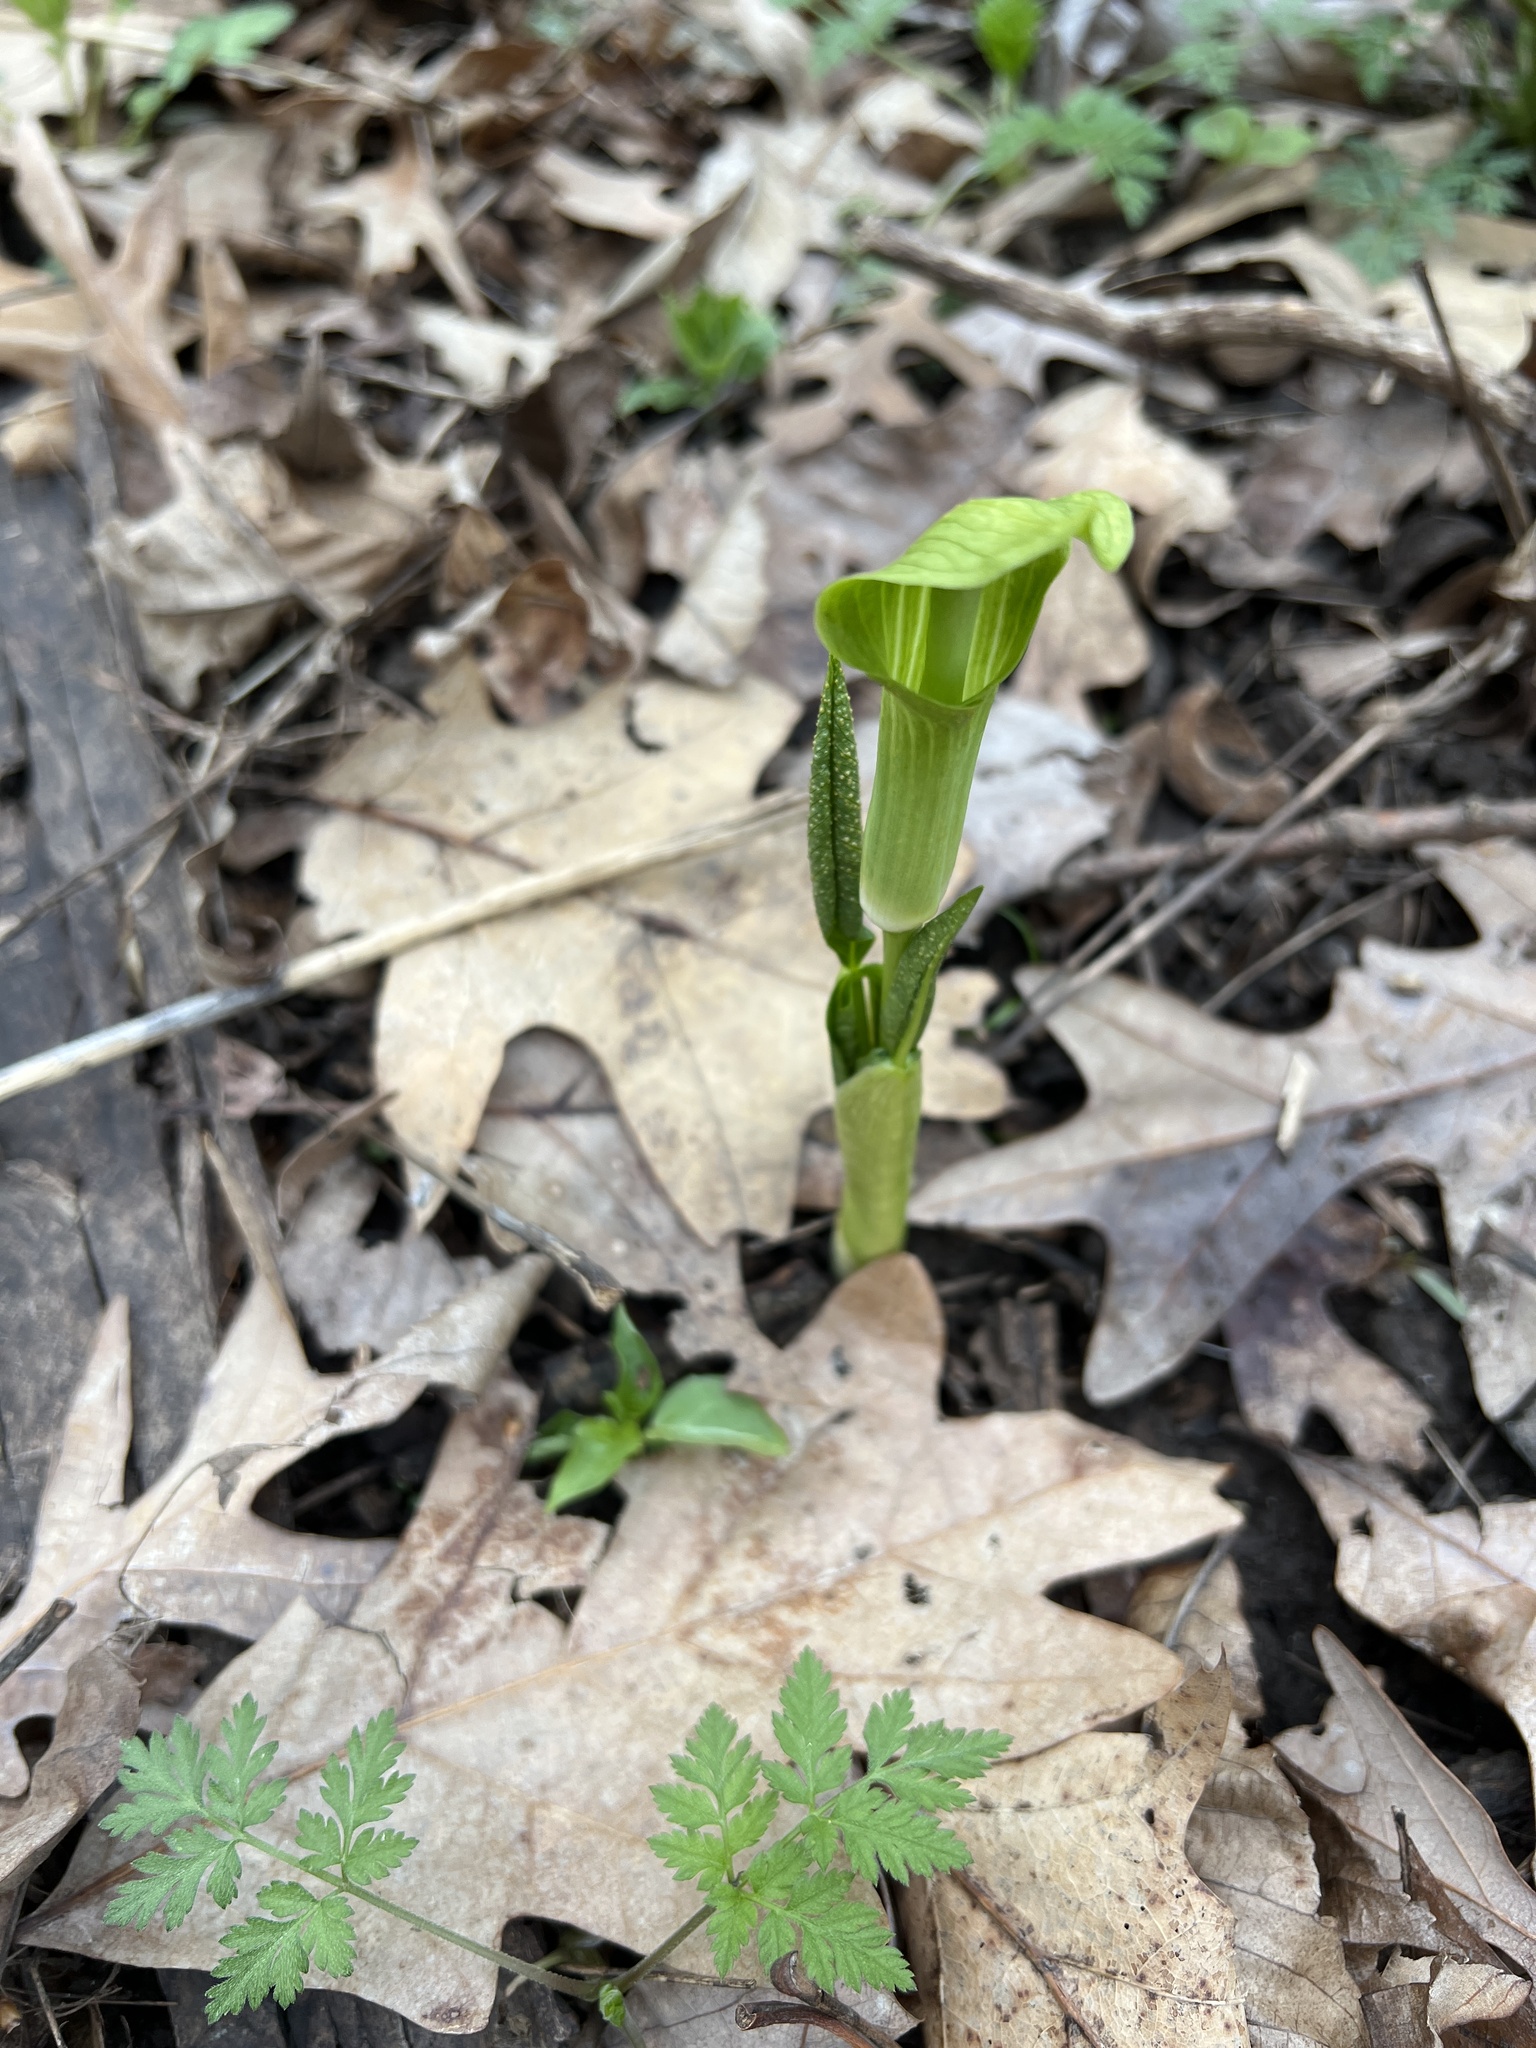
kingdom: Plantae
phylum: Tracheophyta
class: Liliopsida
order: Alismatales
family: Araceae
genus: Arisaema
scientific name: Arisaema triphyllum
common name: Jack-in-the-pulpit
